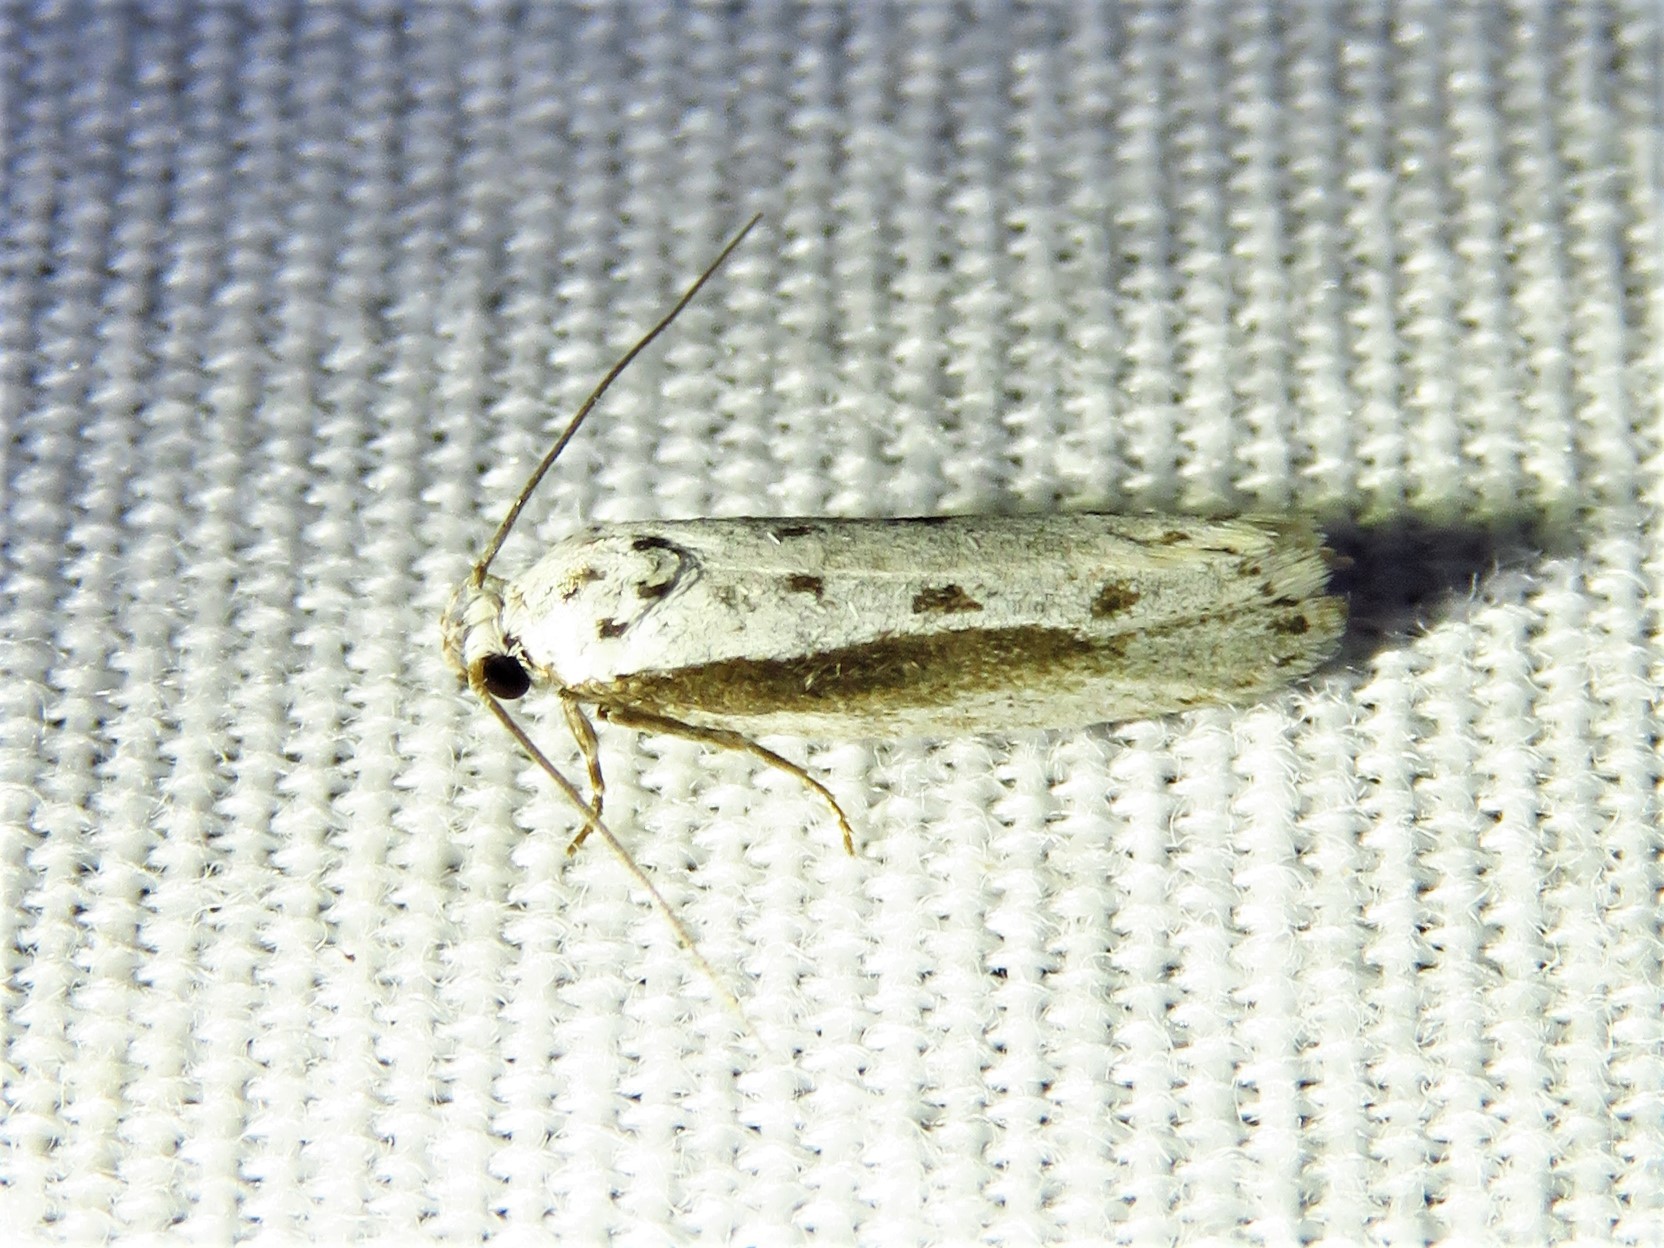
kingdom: Animalia
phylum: Arthropoda
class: Insecta
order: Lepidoptera
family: Ethmiidae
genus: Ethmia
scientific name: Ethmia mirusella
